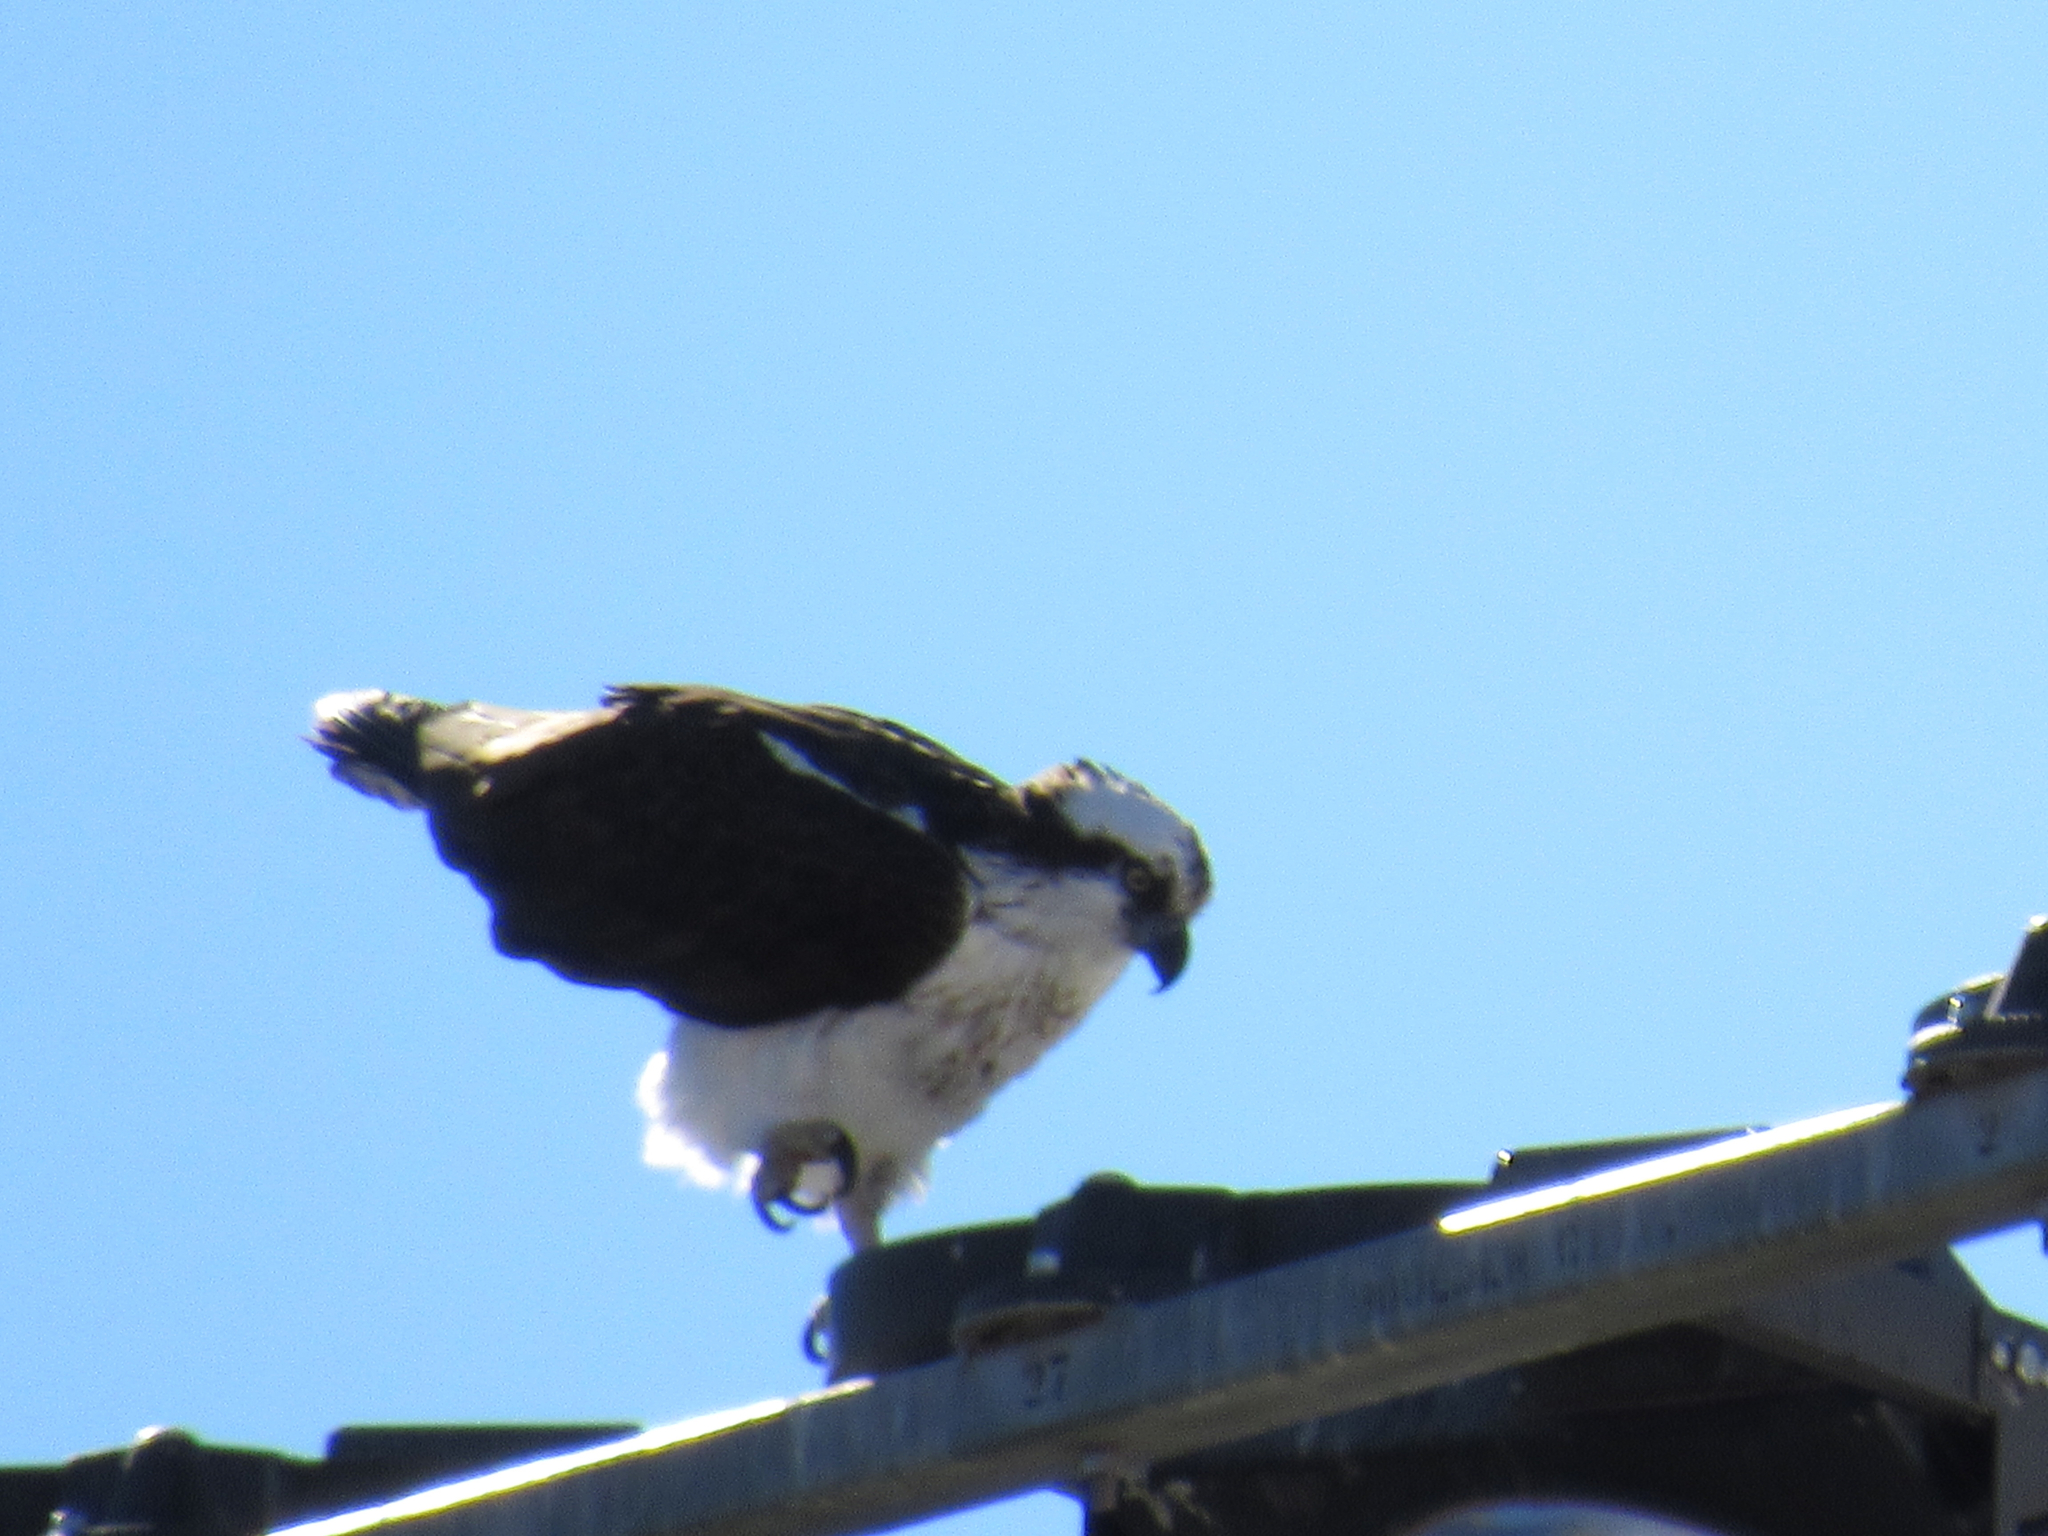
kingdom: Animalia
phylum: Chordata
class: Aves
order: Accipitriformes
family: Pandionidae
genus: Pandion
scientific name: Pandion haliaetus
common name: Osprey
